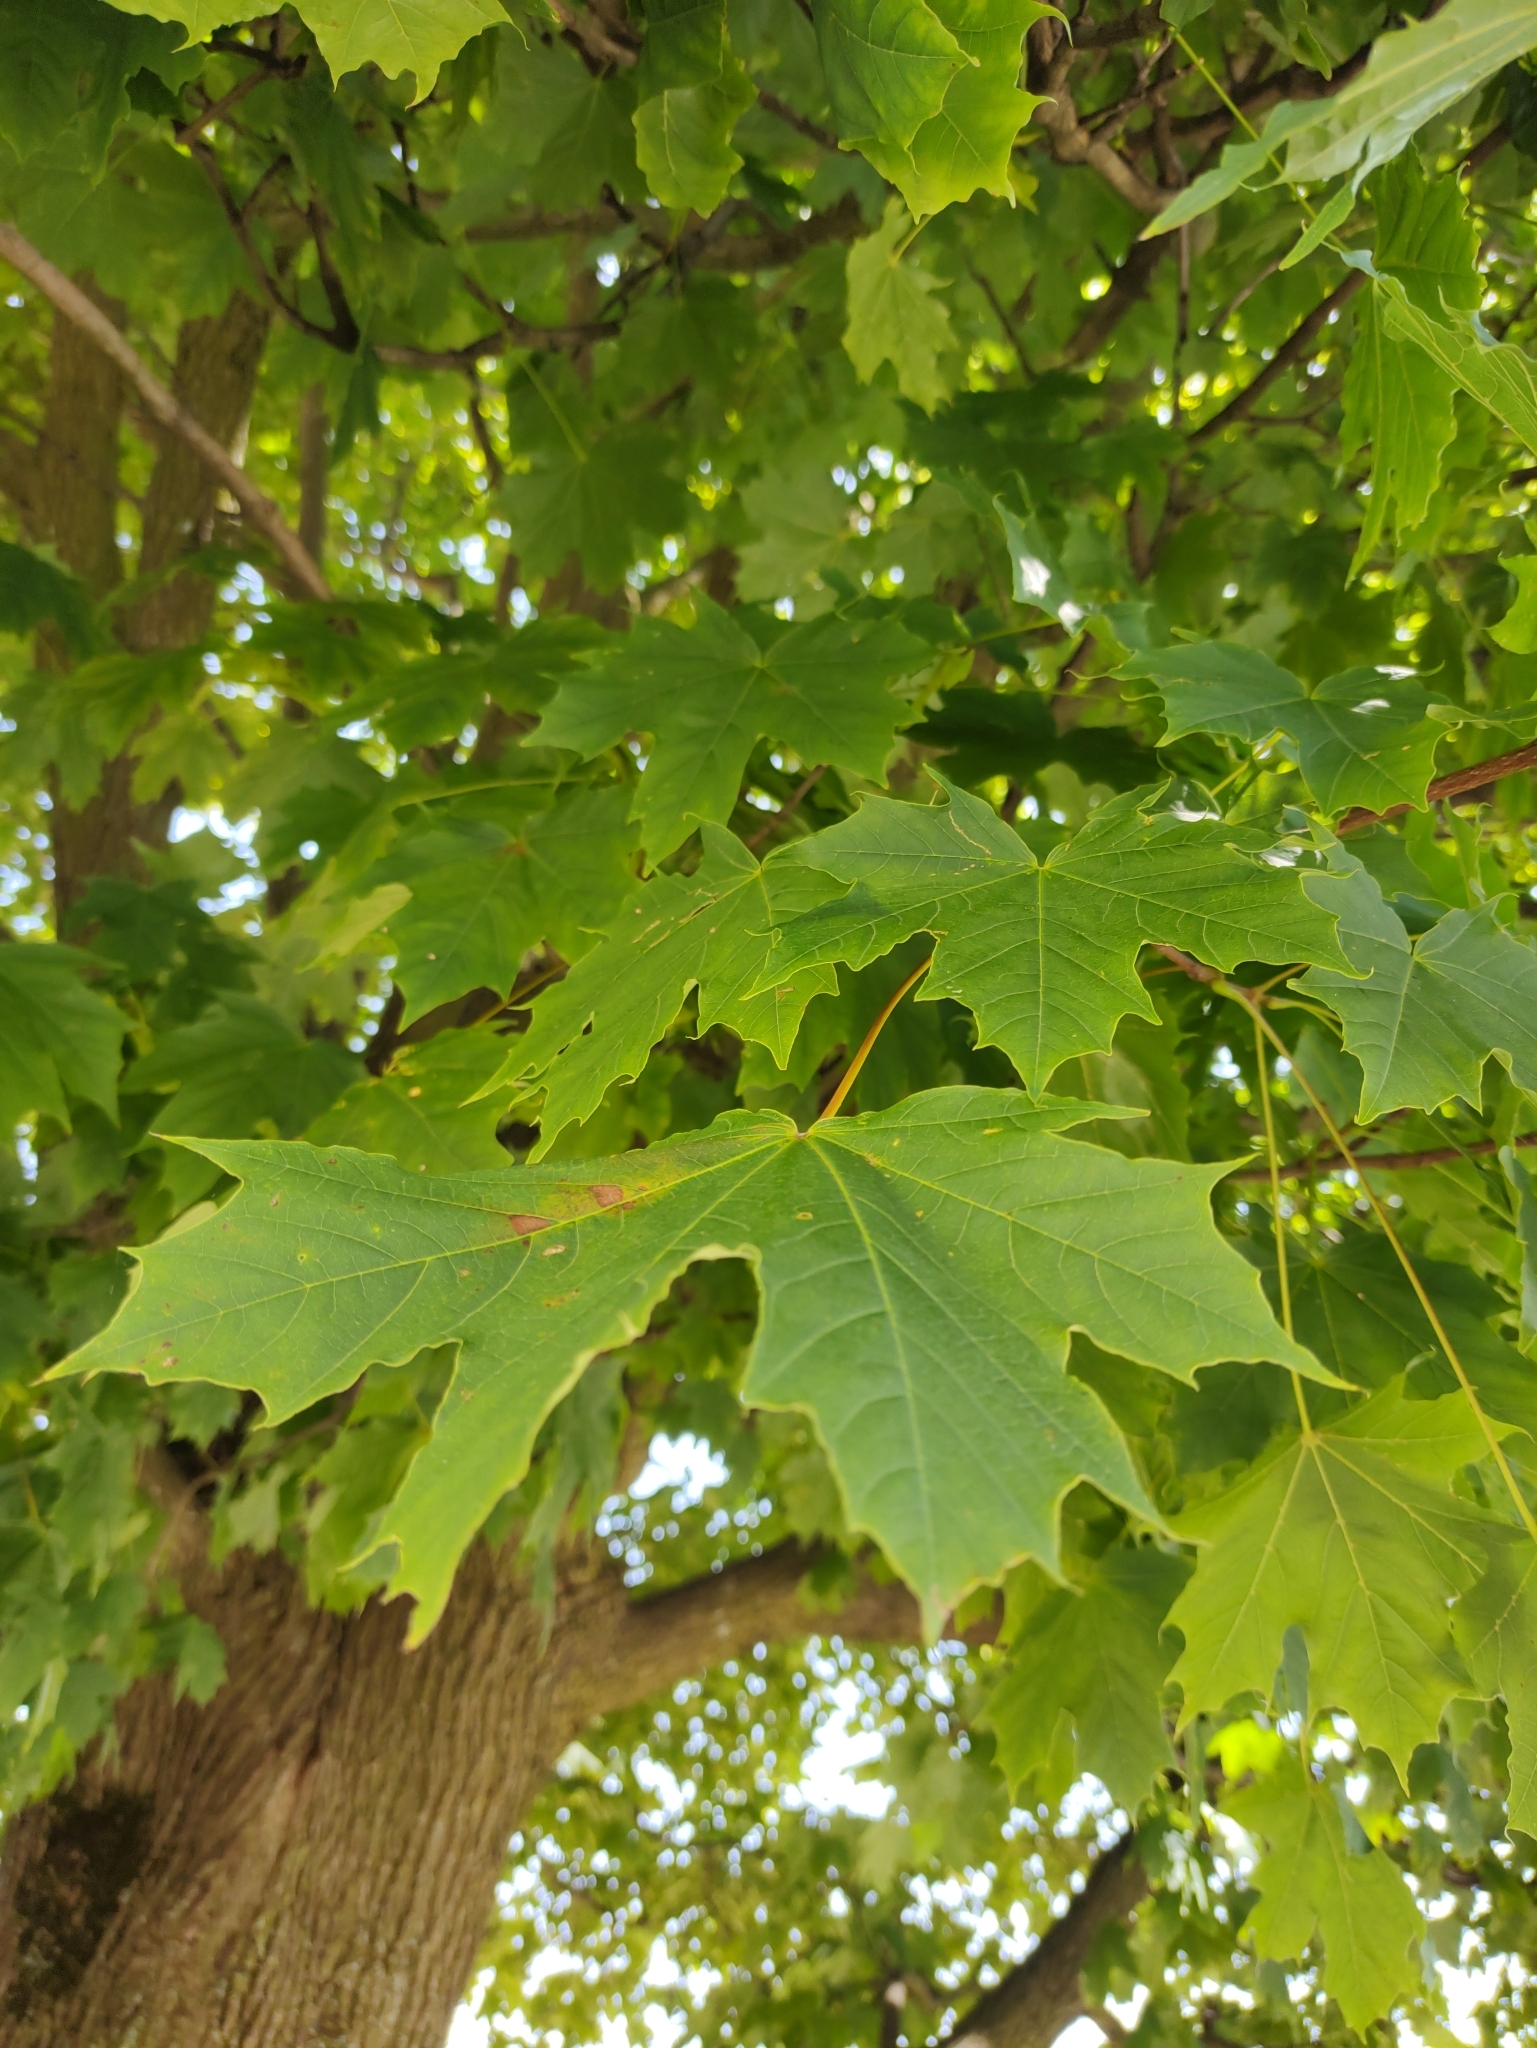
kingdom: Plantae
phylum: Tracheophyta
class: Magnoliopsida
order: Sapindales
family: Sapindaceae
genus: Acer
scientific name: Acer platanoides
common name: Norway maple
